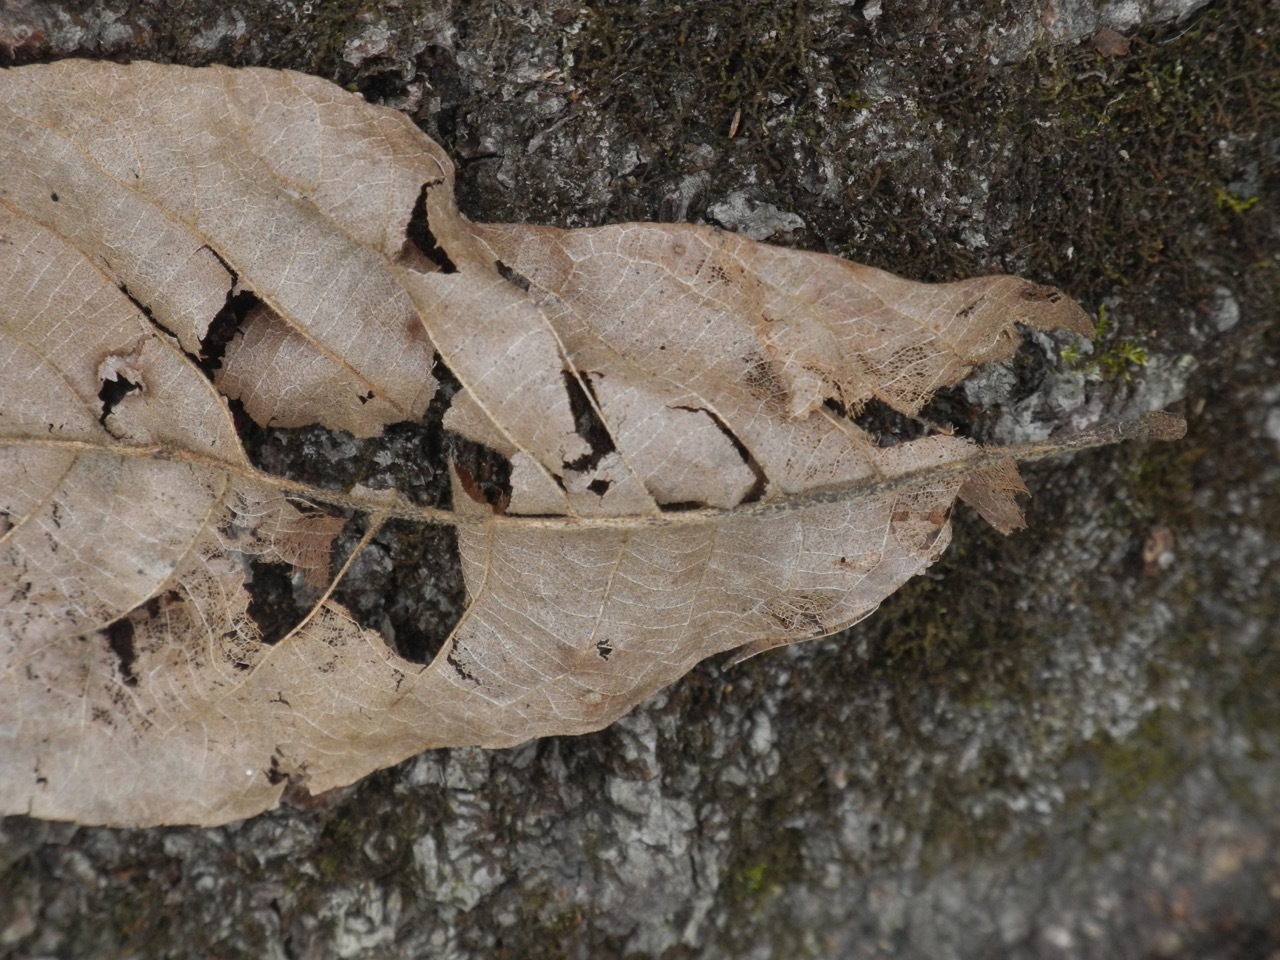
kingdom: Plantae
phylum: Tracheophyta
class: Magnoliopsida
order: Fagales
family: Juglandaceae
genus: Carya
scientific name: Carya alba
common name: Mockernut hickory
